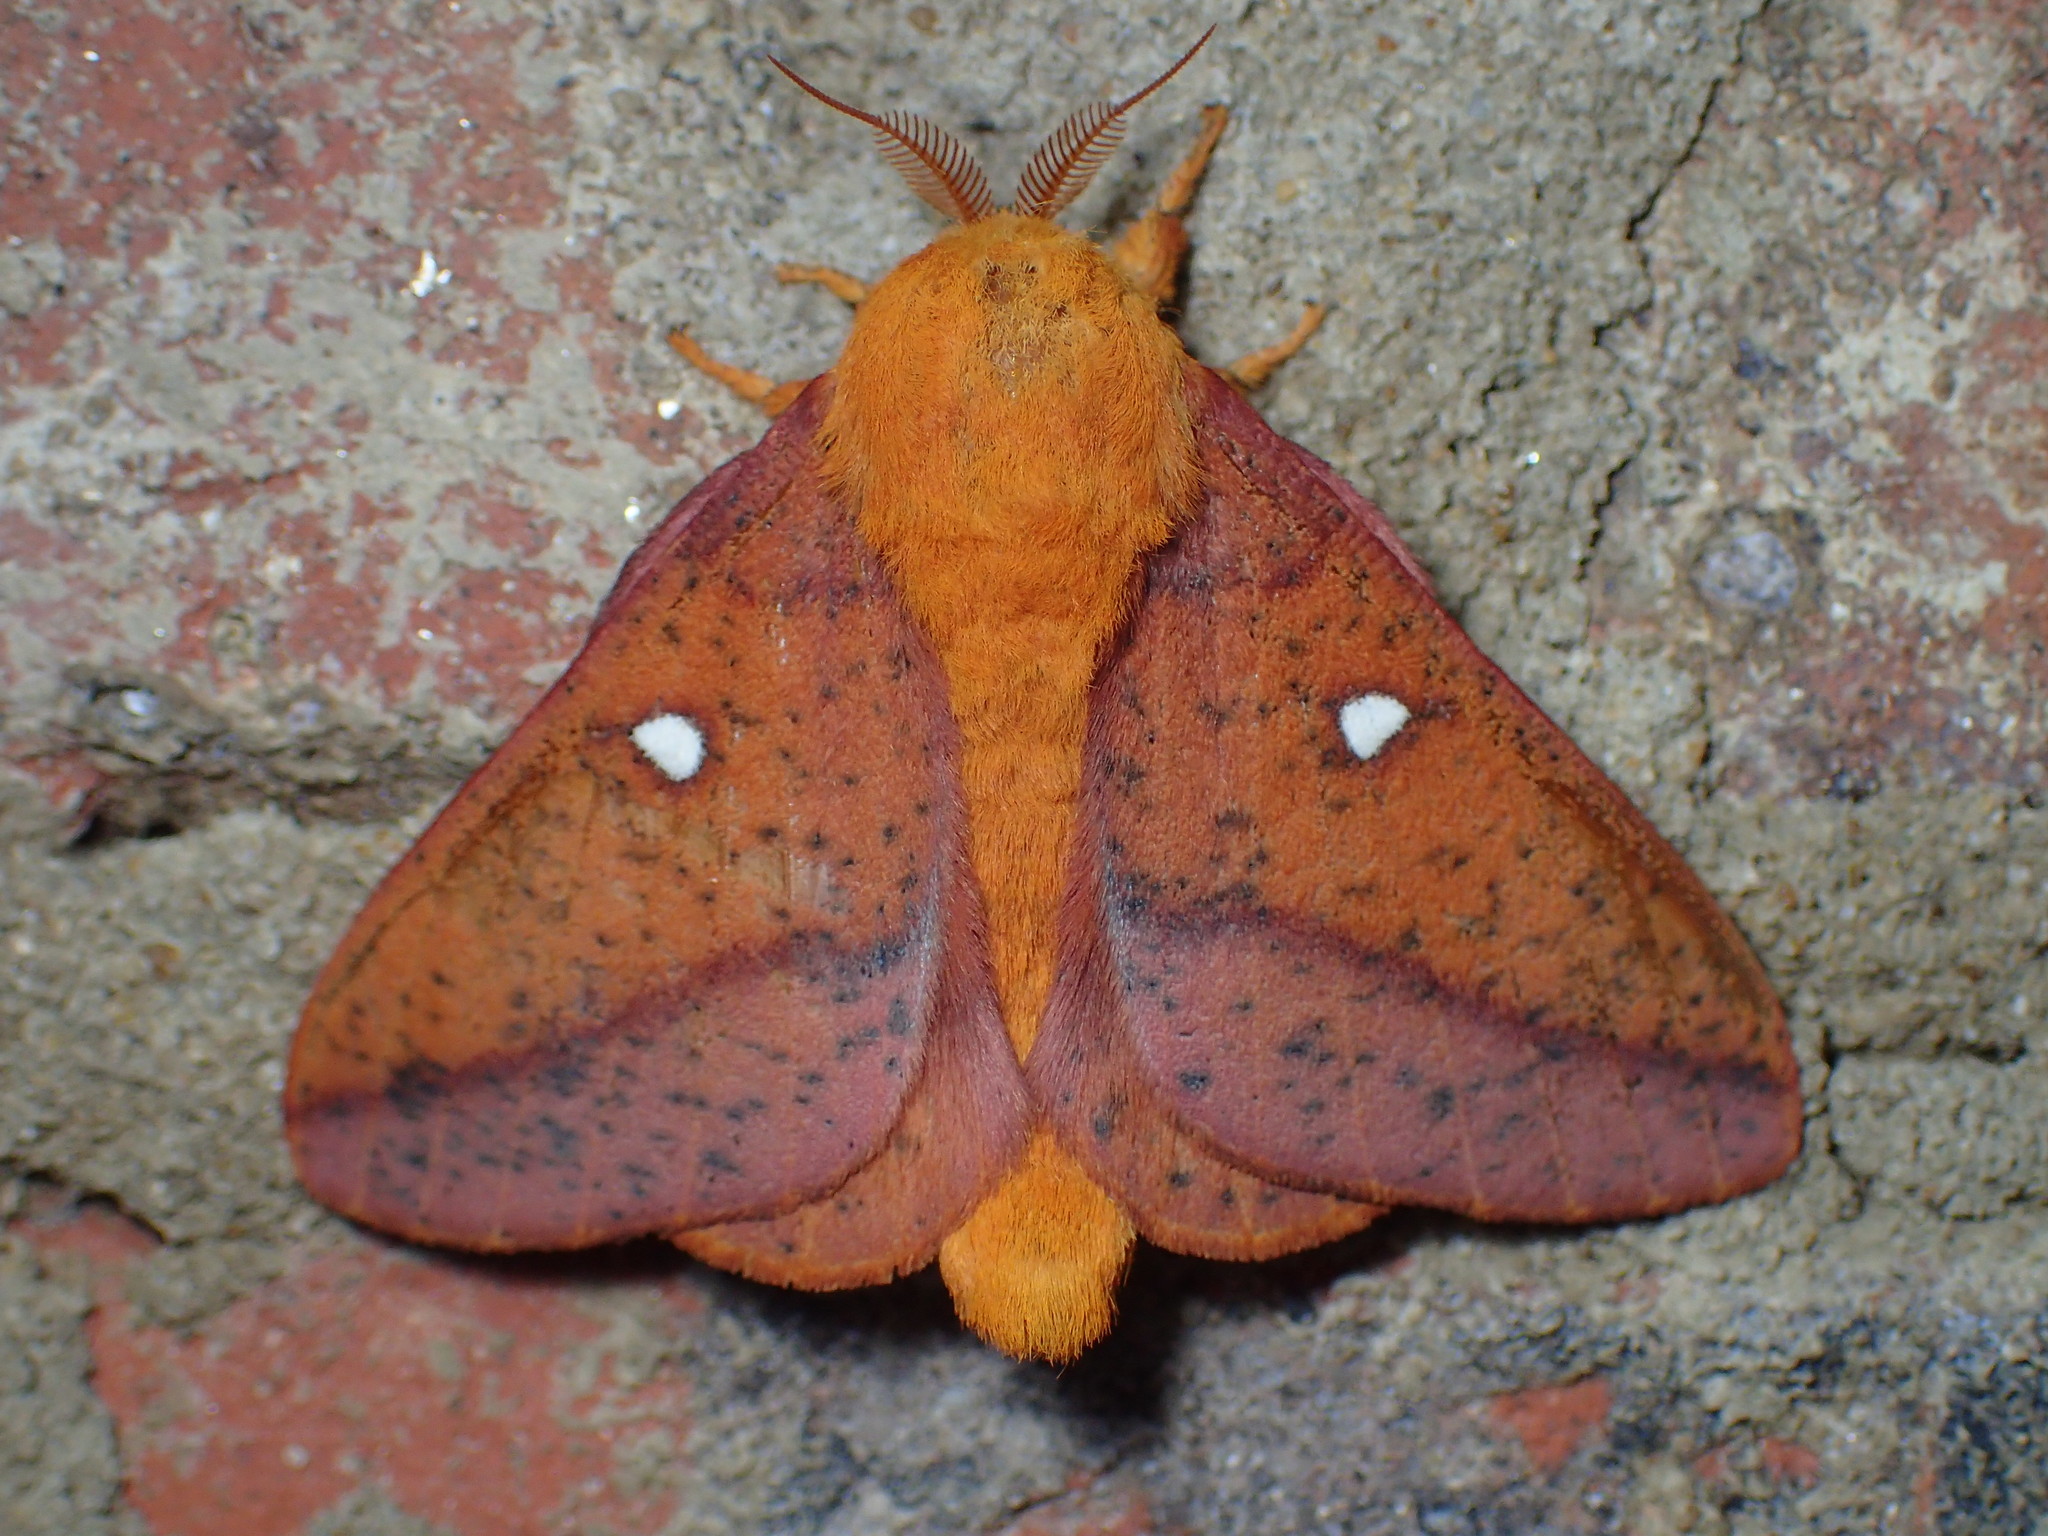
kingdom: Animalia
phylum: Arthropoda
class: Insecta
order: Lepidoptera
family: Saturniidae
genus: Anisota
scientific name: Anisota stigma
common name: Spiny oakworm moth
